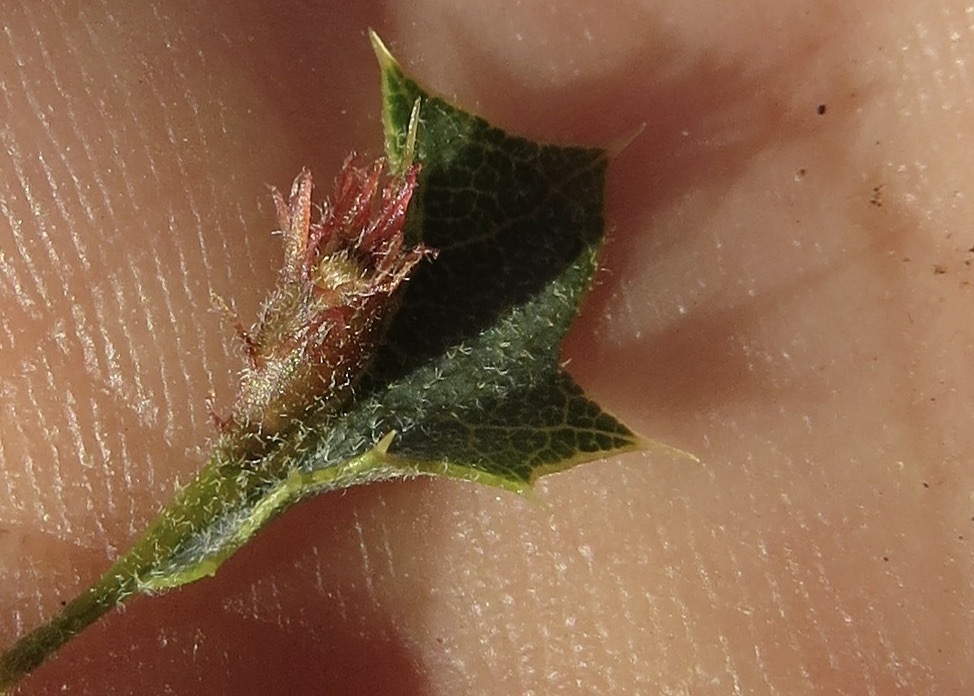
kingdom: Animalia
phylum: Arthropoda
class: Insecta
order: Hymenoptera
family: Cynipidae
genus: Andricus
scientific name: Andricus
